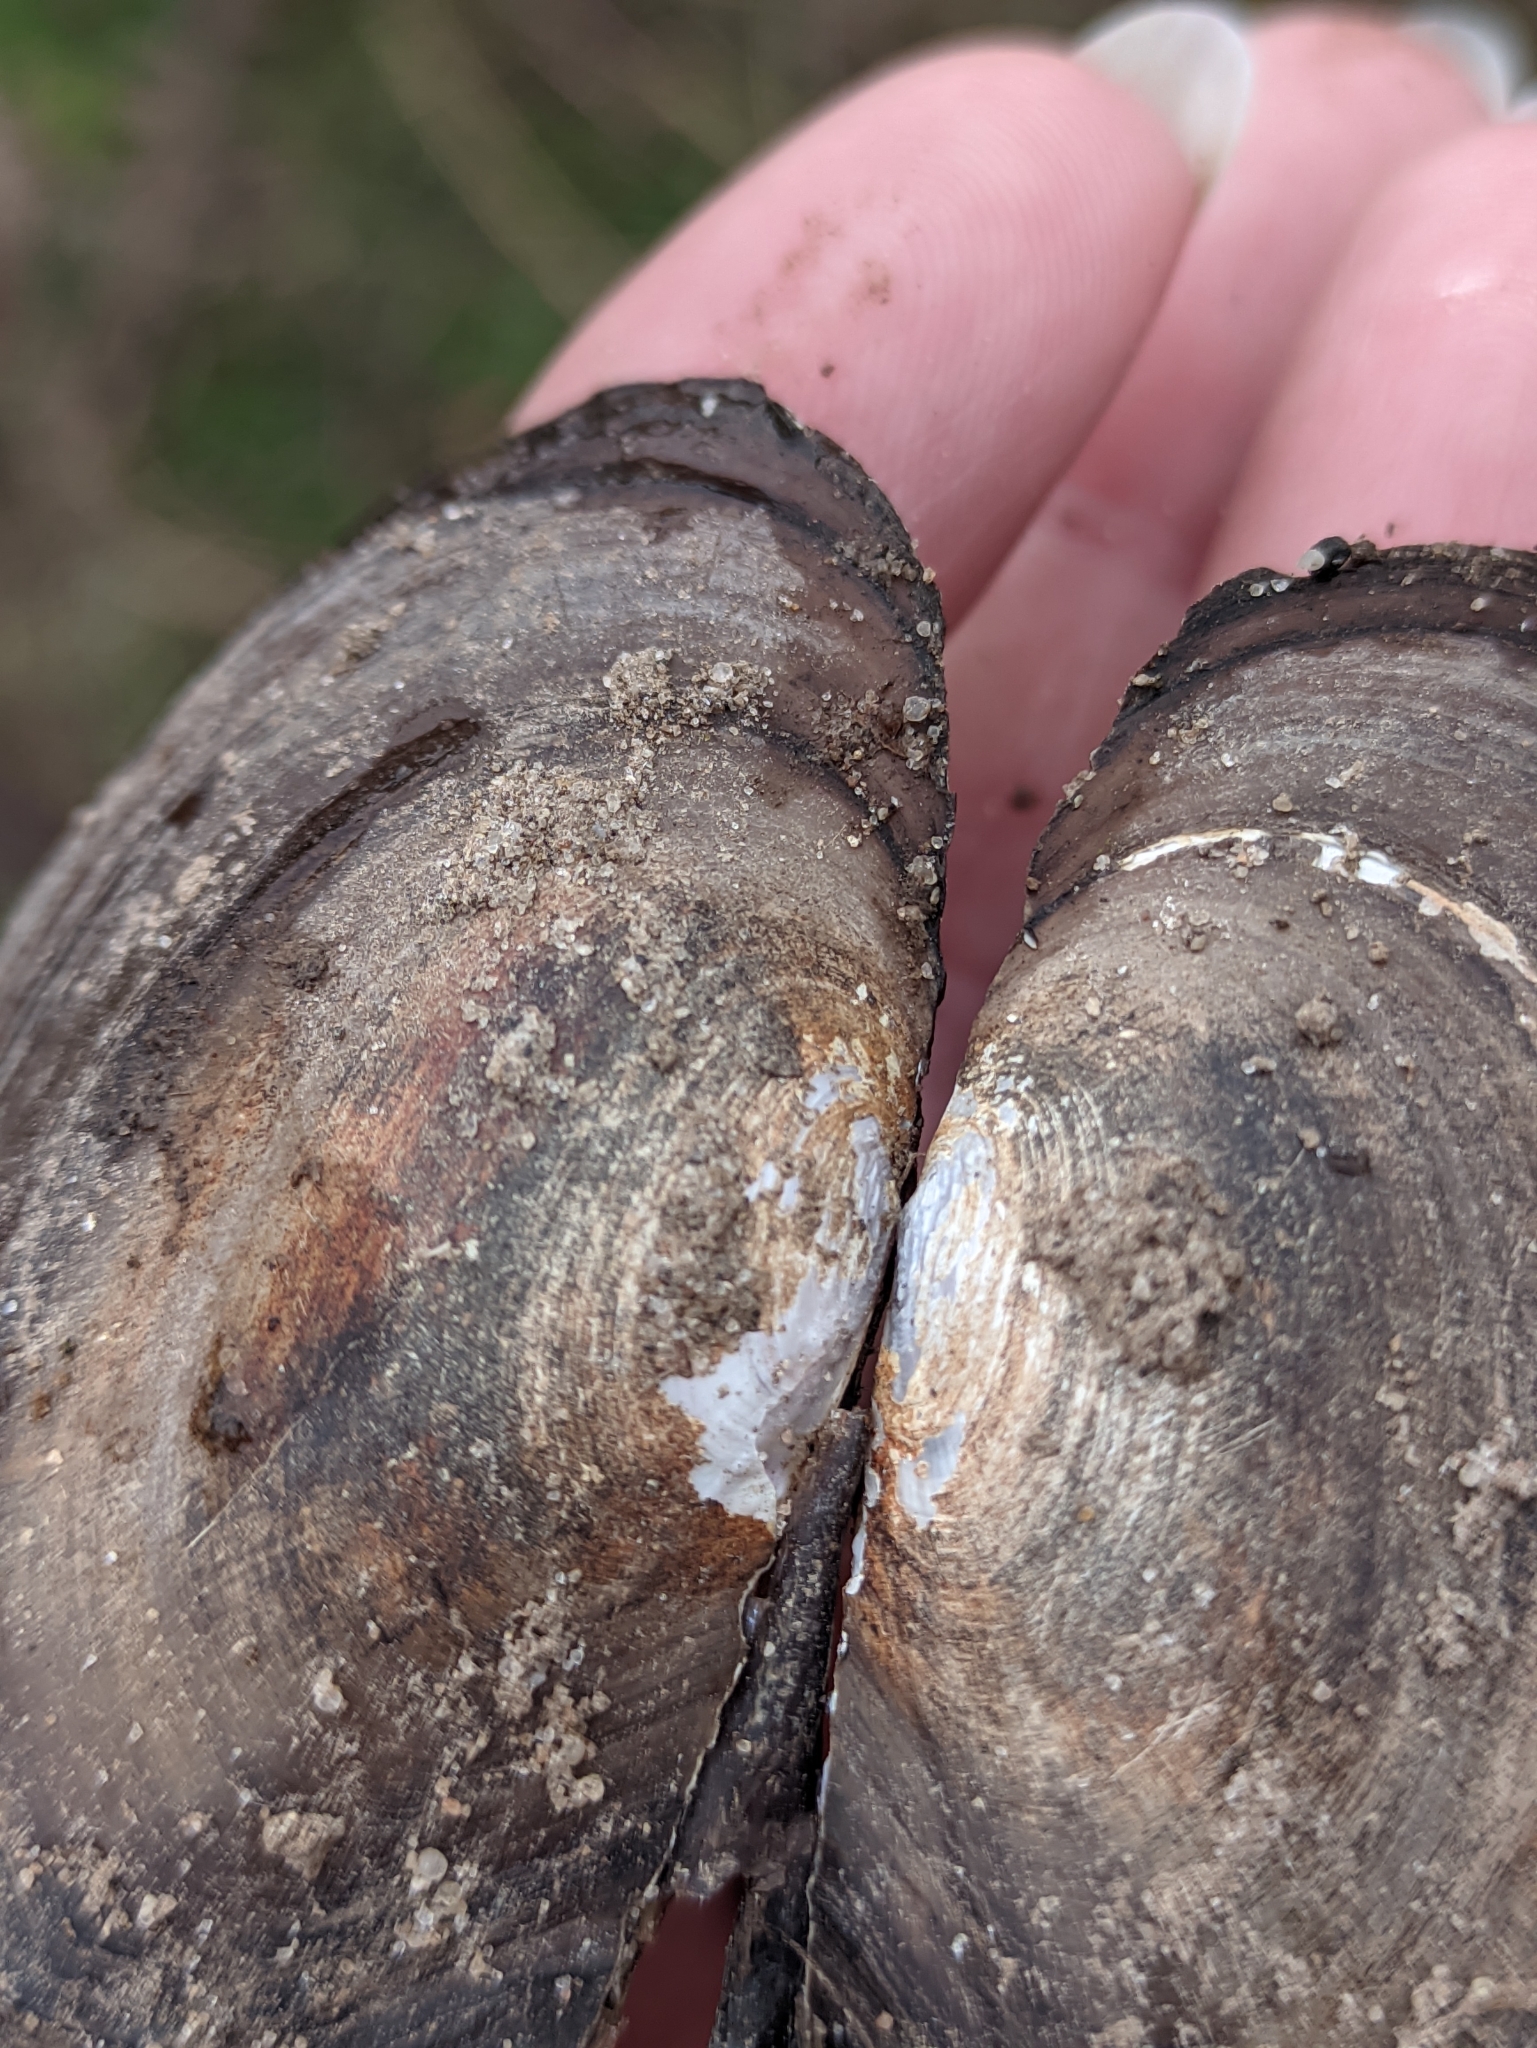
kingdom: Animalia
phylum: Mollusca
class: Bivalvia
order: Unionida
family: Unionidae
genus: Anodonta
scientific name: Anodonta anatina
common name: Duck mussel
